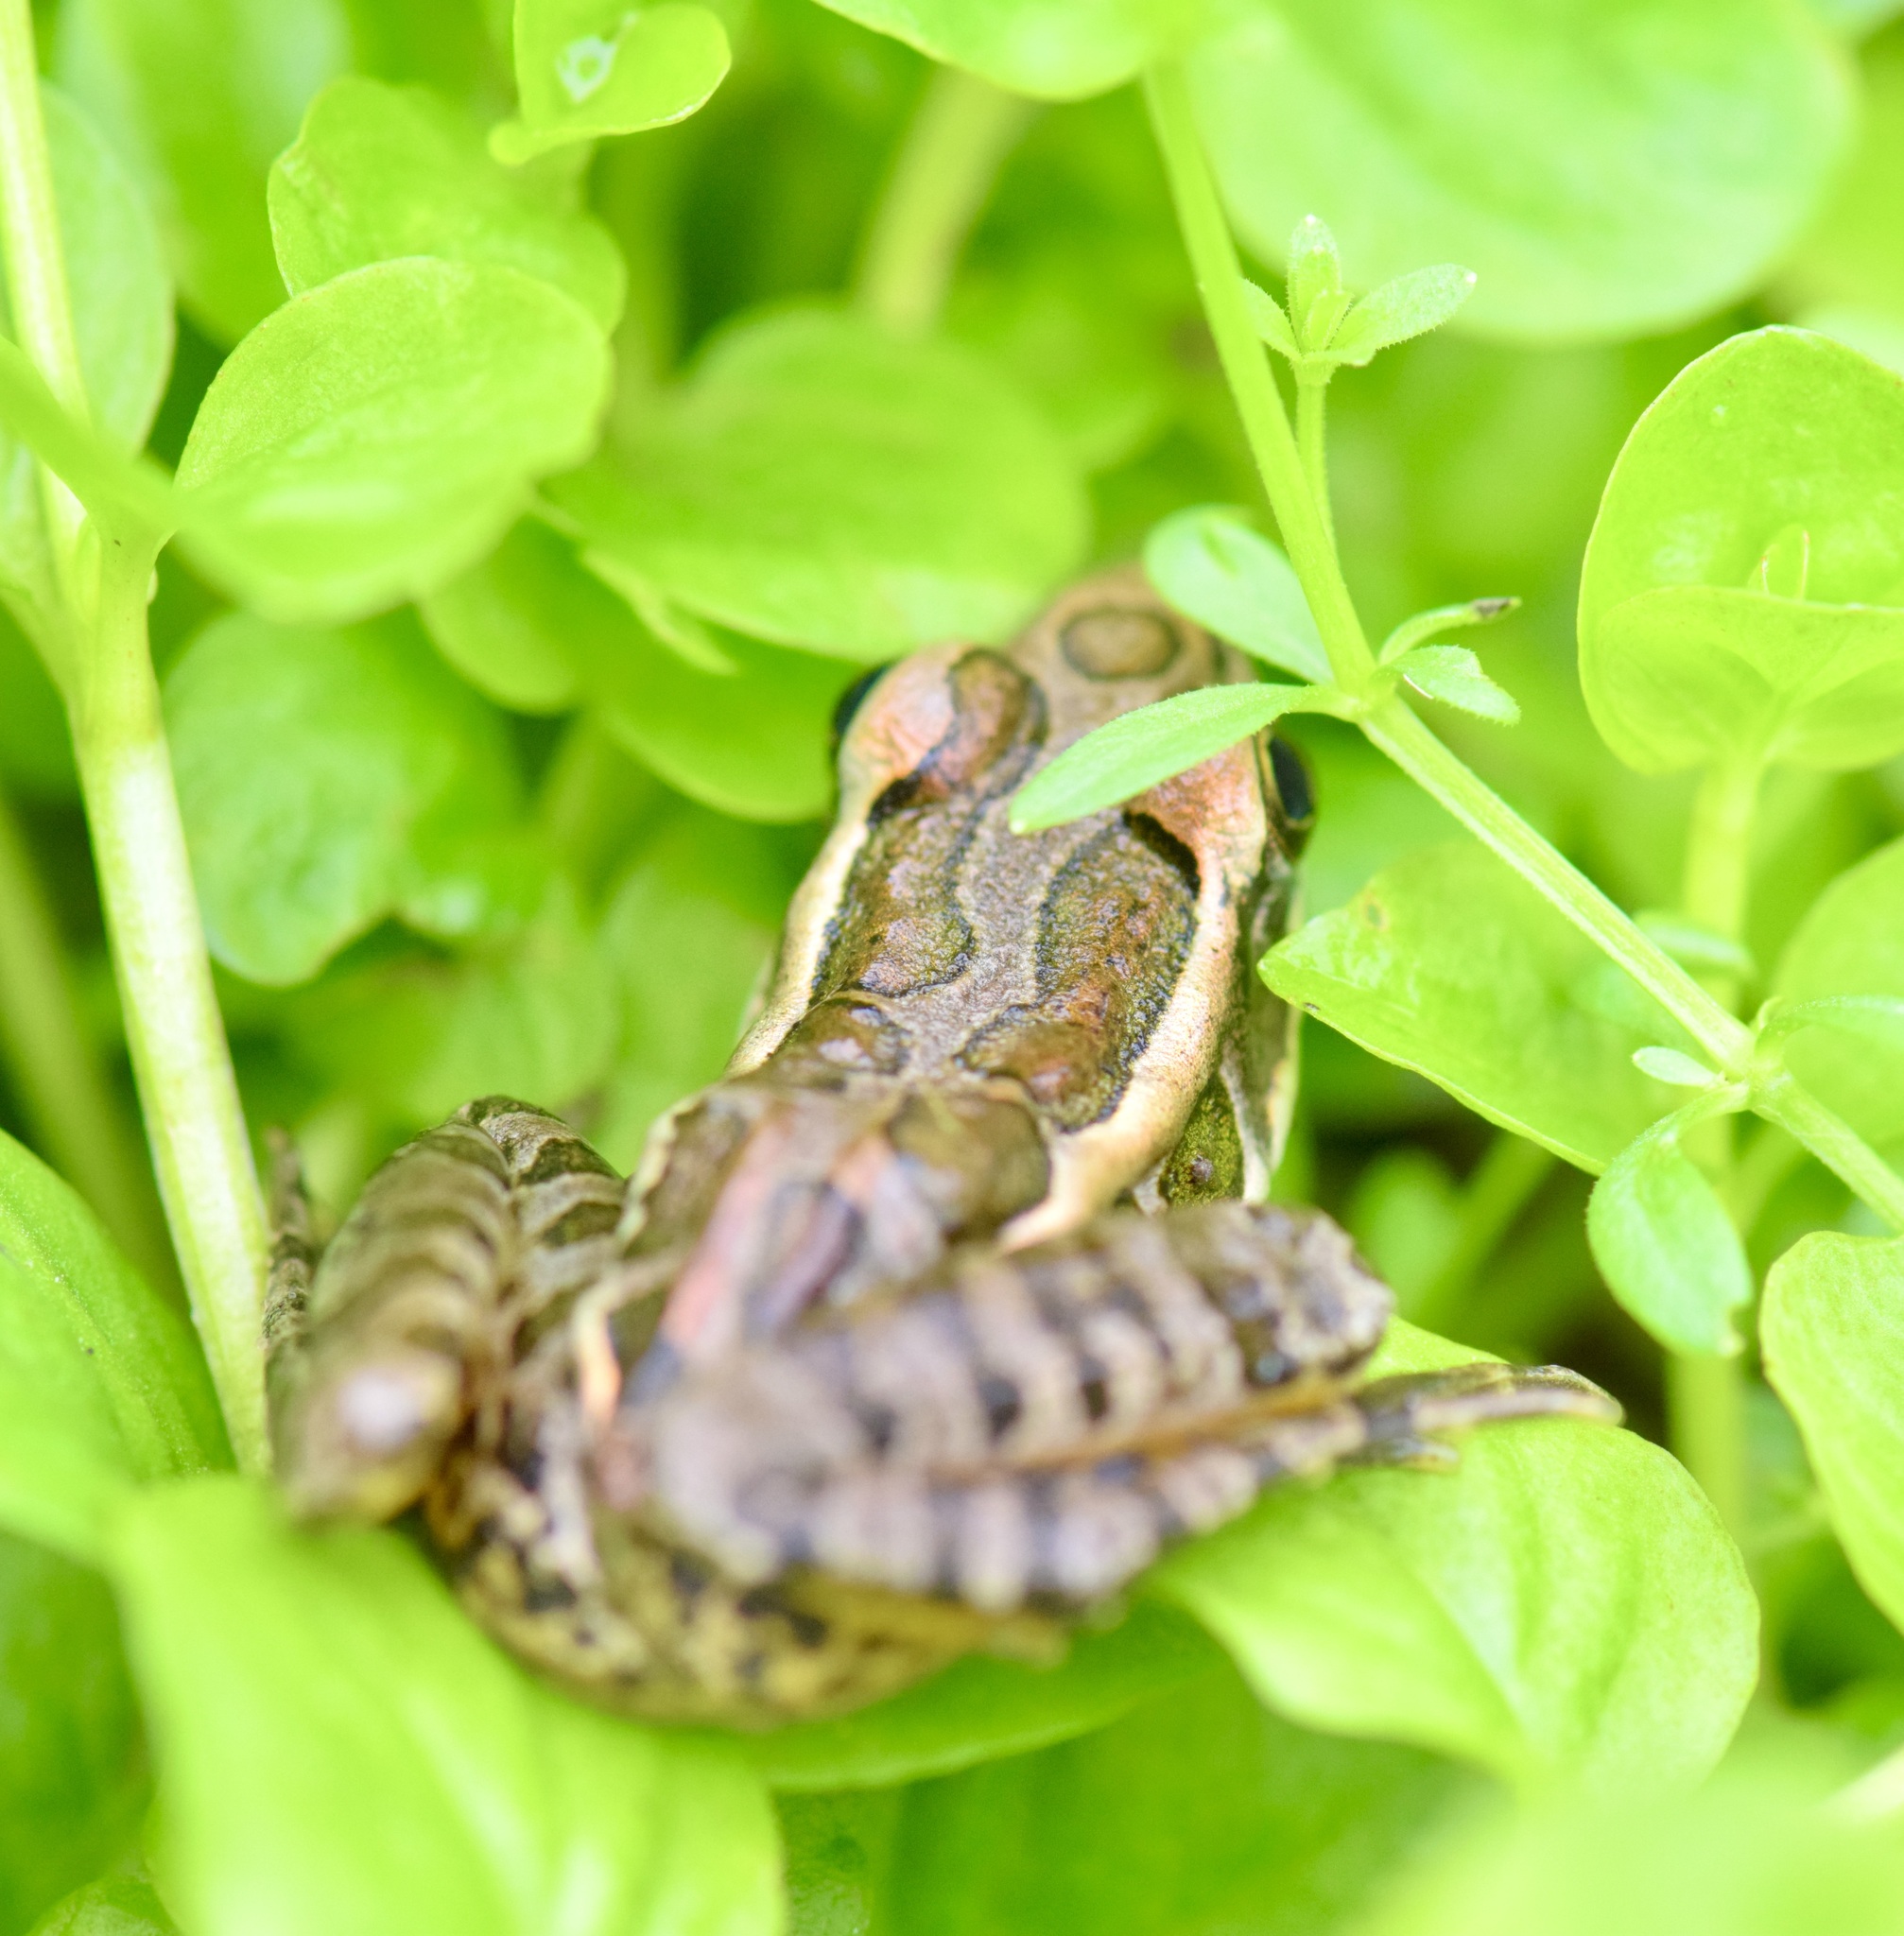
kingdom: Animalia
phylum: Chordata
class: Amphibia
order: Anura
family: Ranidae
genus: Lithobates
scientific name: Lithobates palustris
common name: Pickerel frog
